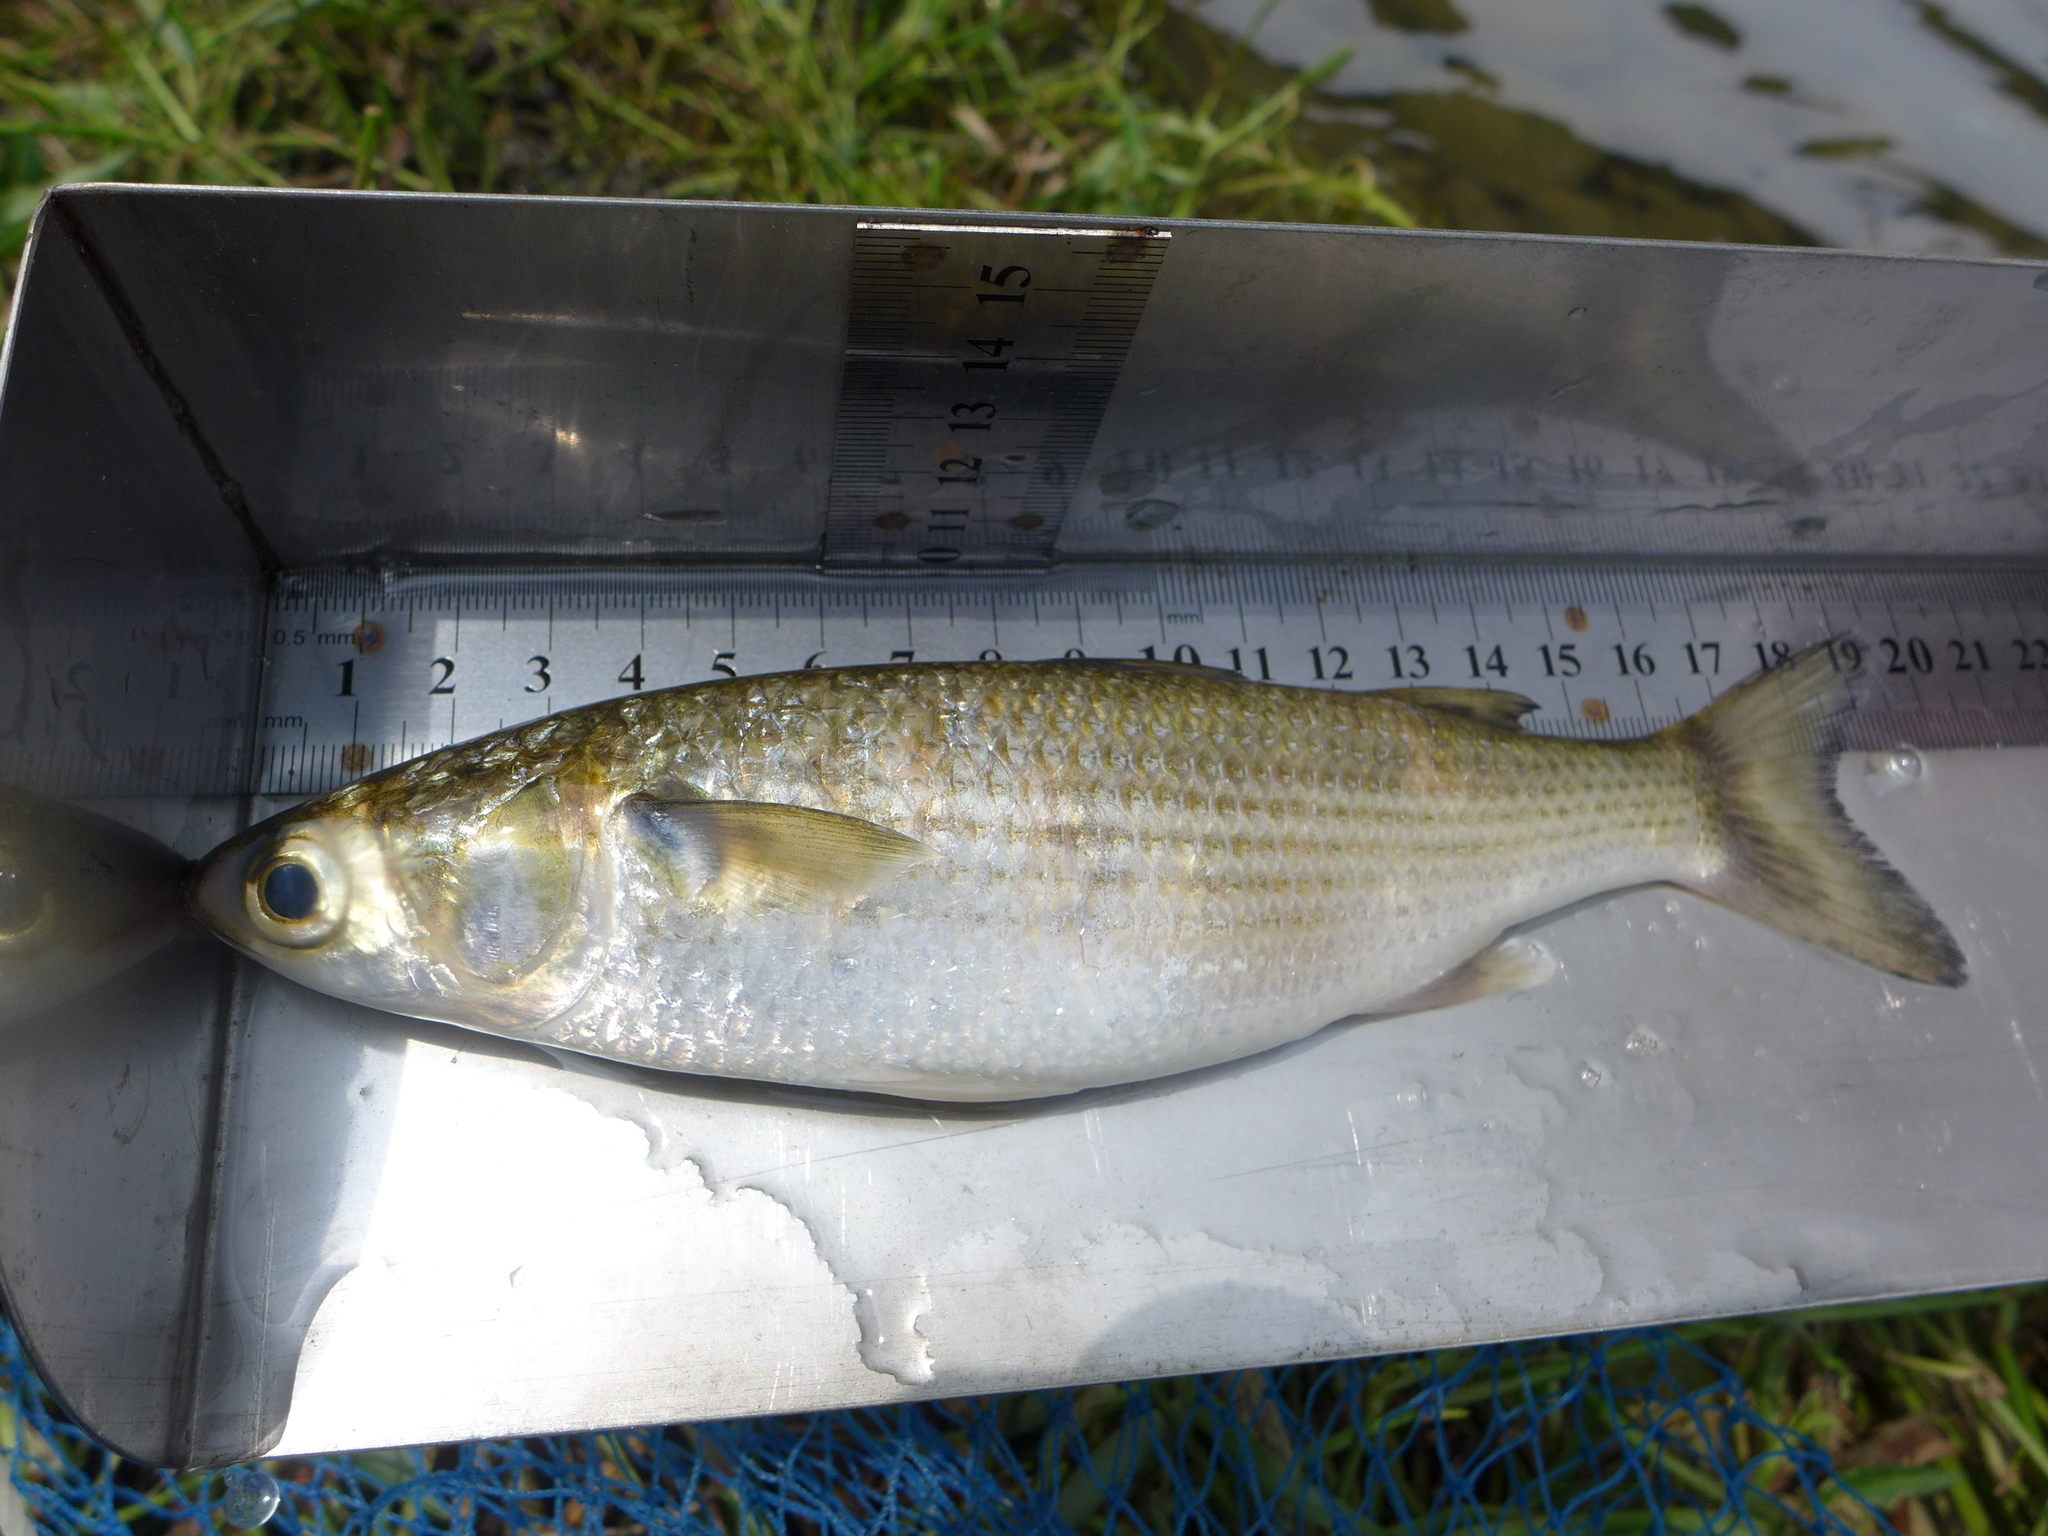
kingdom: Animalia
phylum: Chordata
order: Mugiliformes
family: Mugilidae
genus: Mugil
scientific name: Mugil cephalus
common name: Grey mullet
